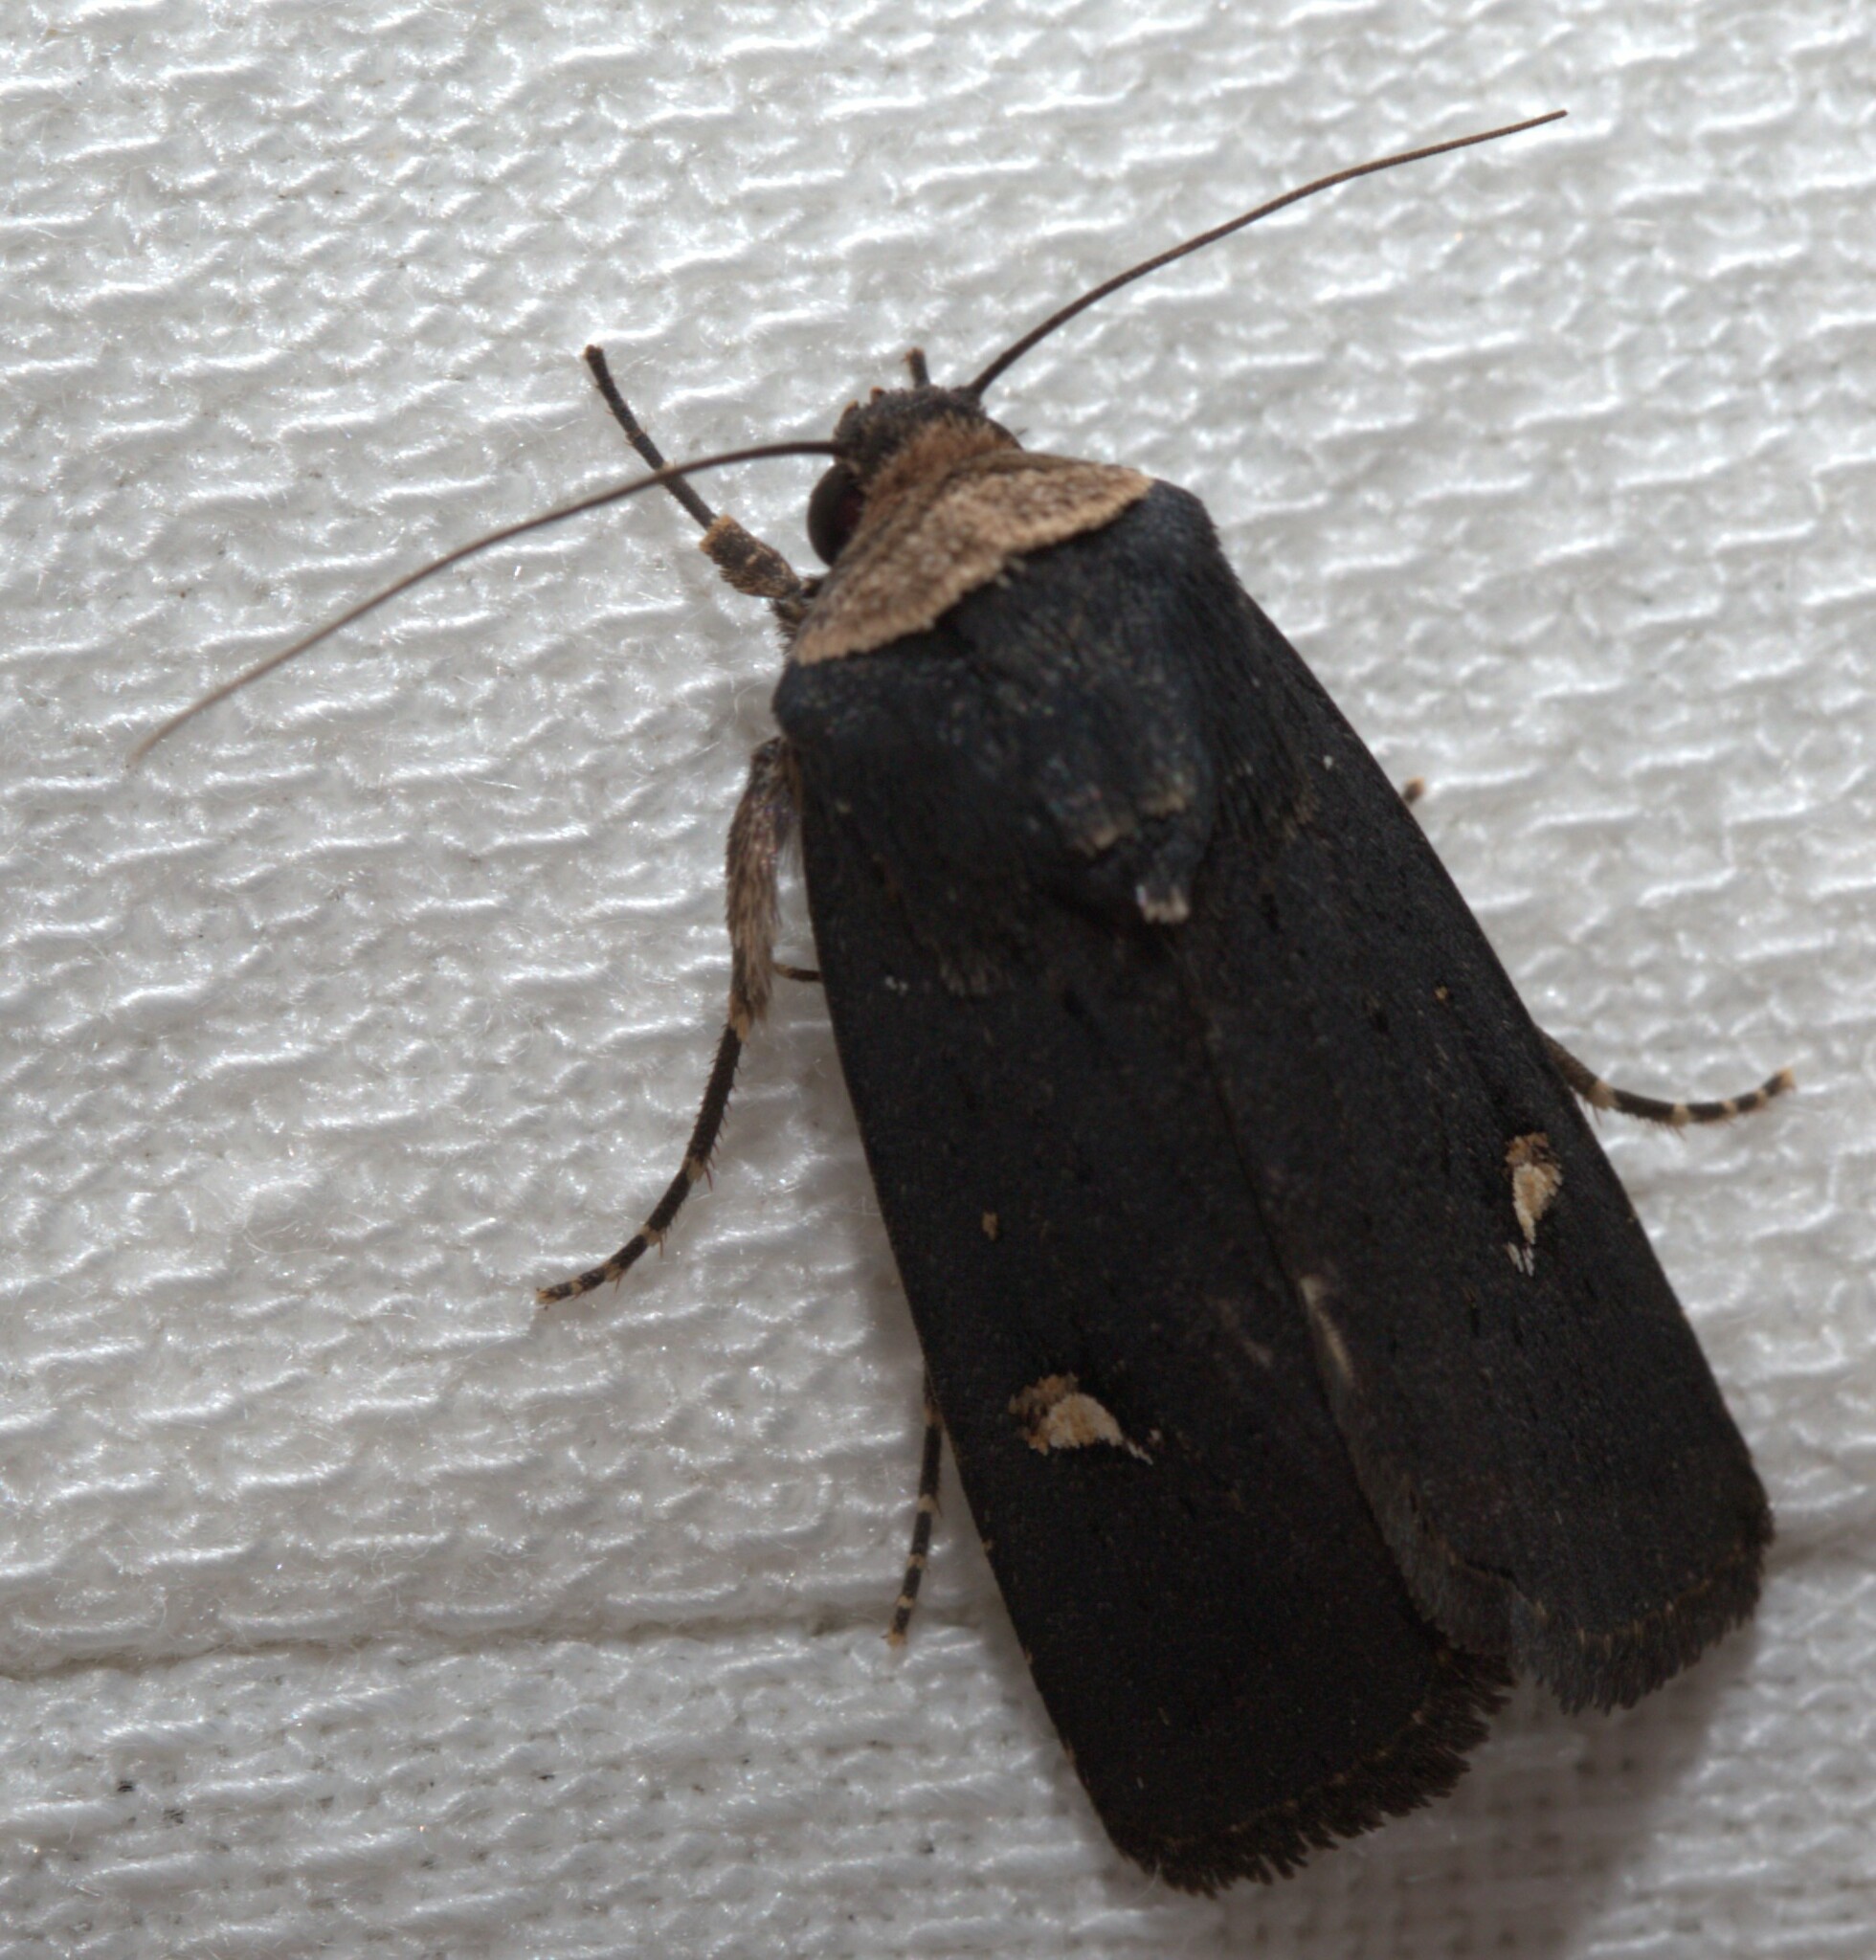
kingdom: Animalia
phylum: Arthropoda
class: Insecta
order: Lepidoptera
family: Noctuidae
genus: Proteuxoa
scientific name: Proteuxoa testaceicollis
